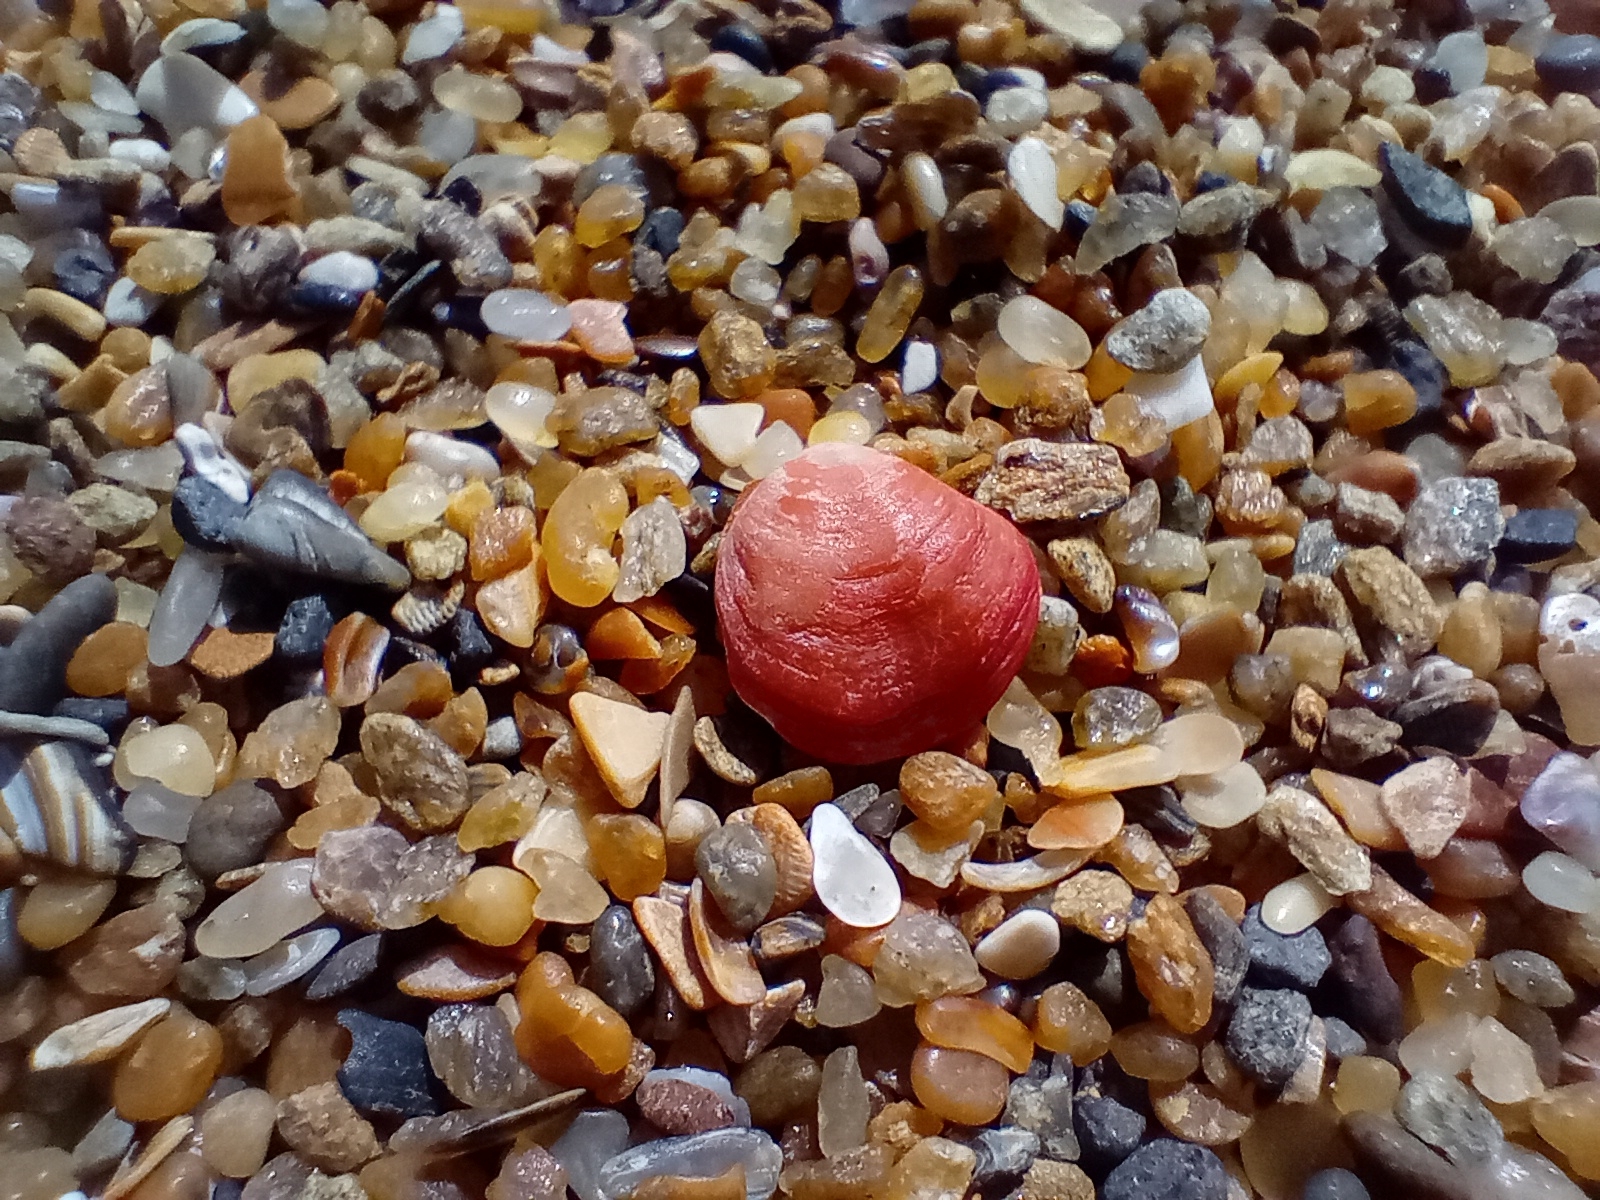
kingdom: Animalia
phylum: Brachiopoda
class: Rhynchonellata
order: Terebratulida
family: Terebratellidae
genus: Calloria
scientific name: Calloria inconspicua
